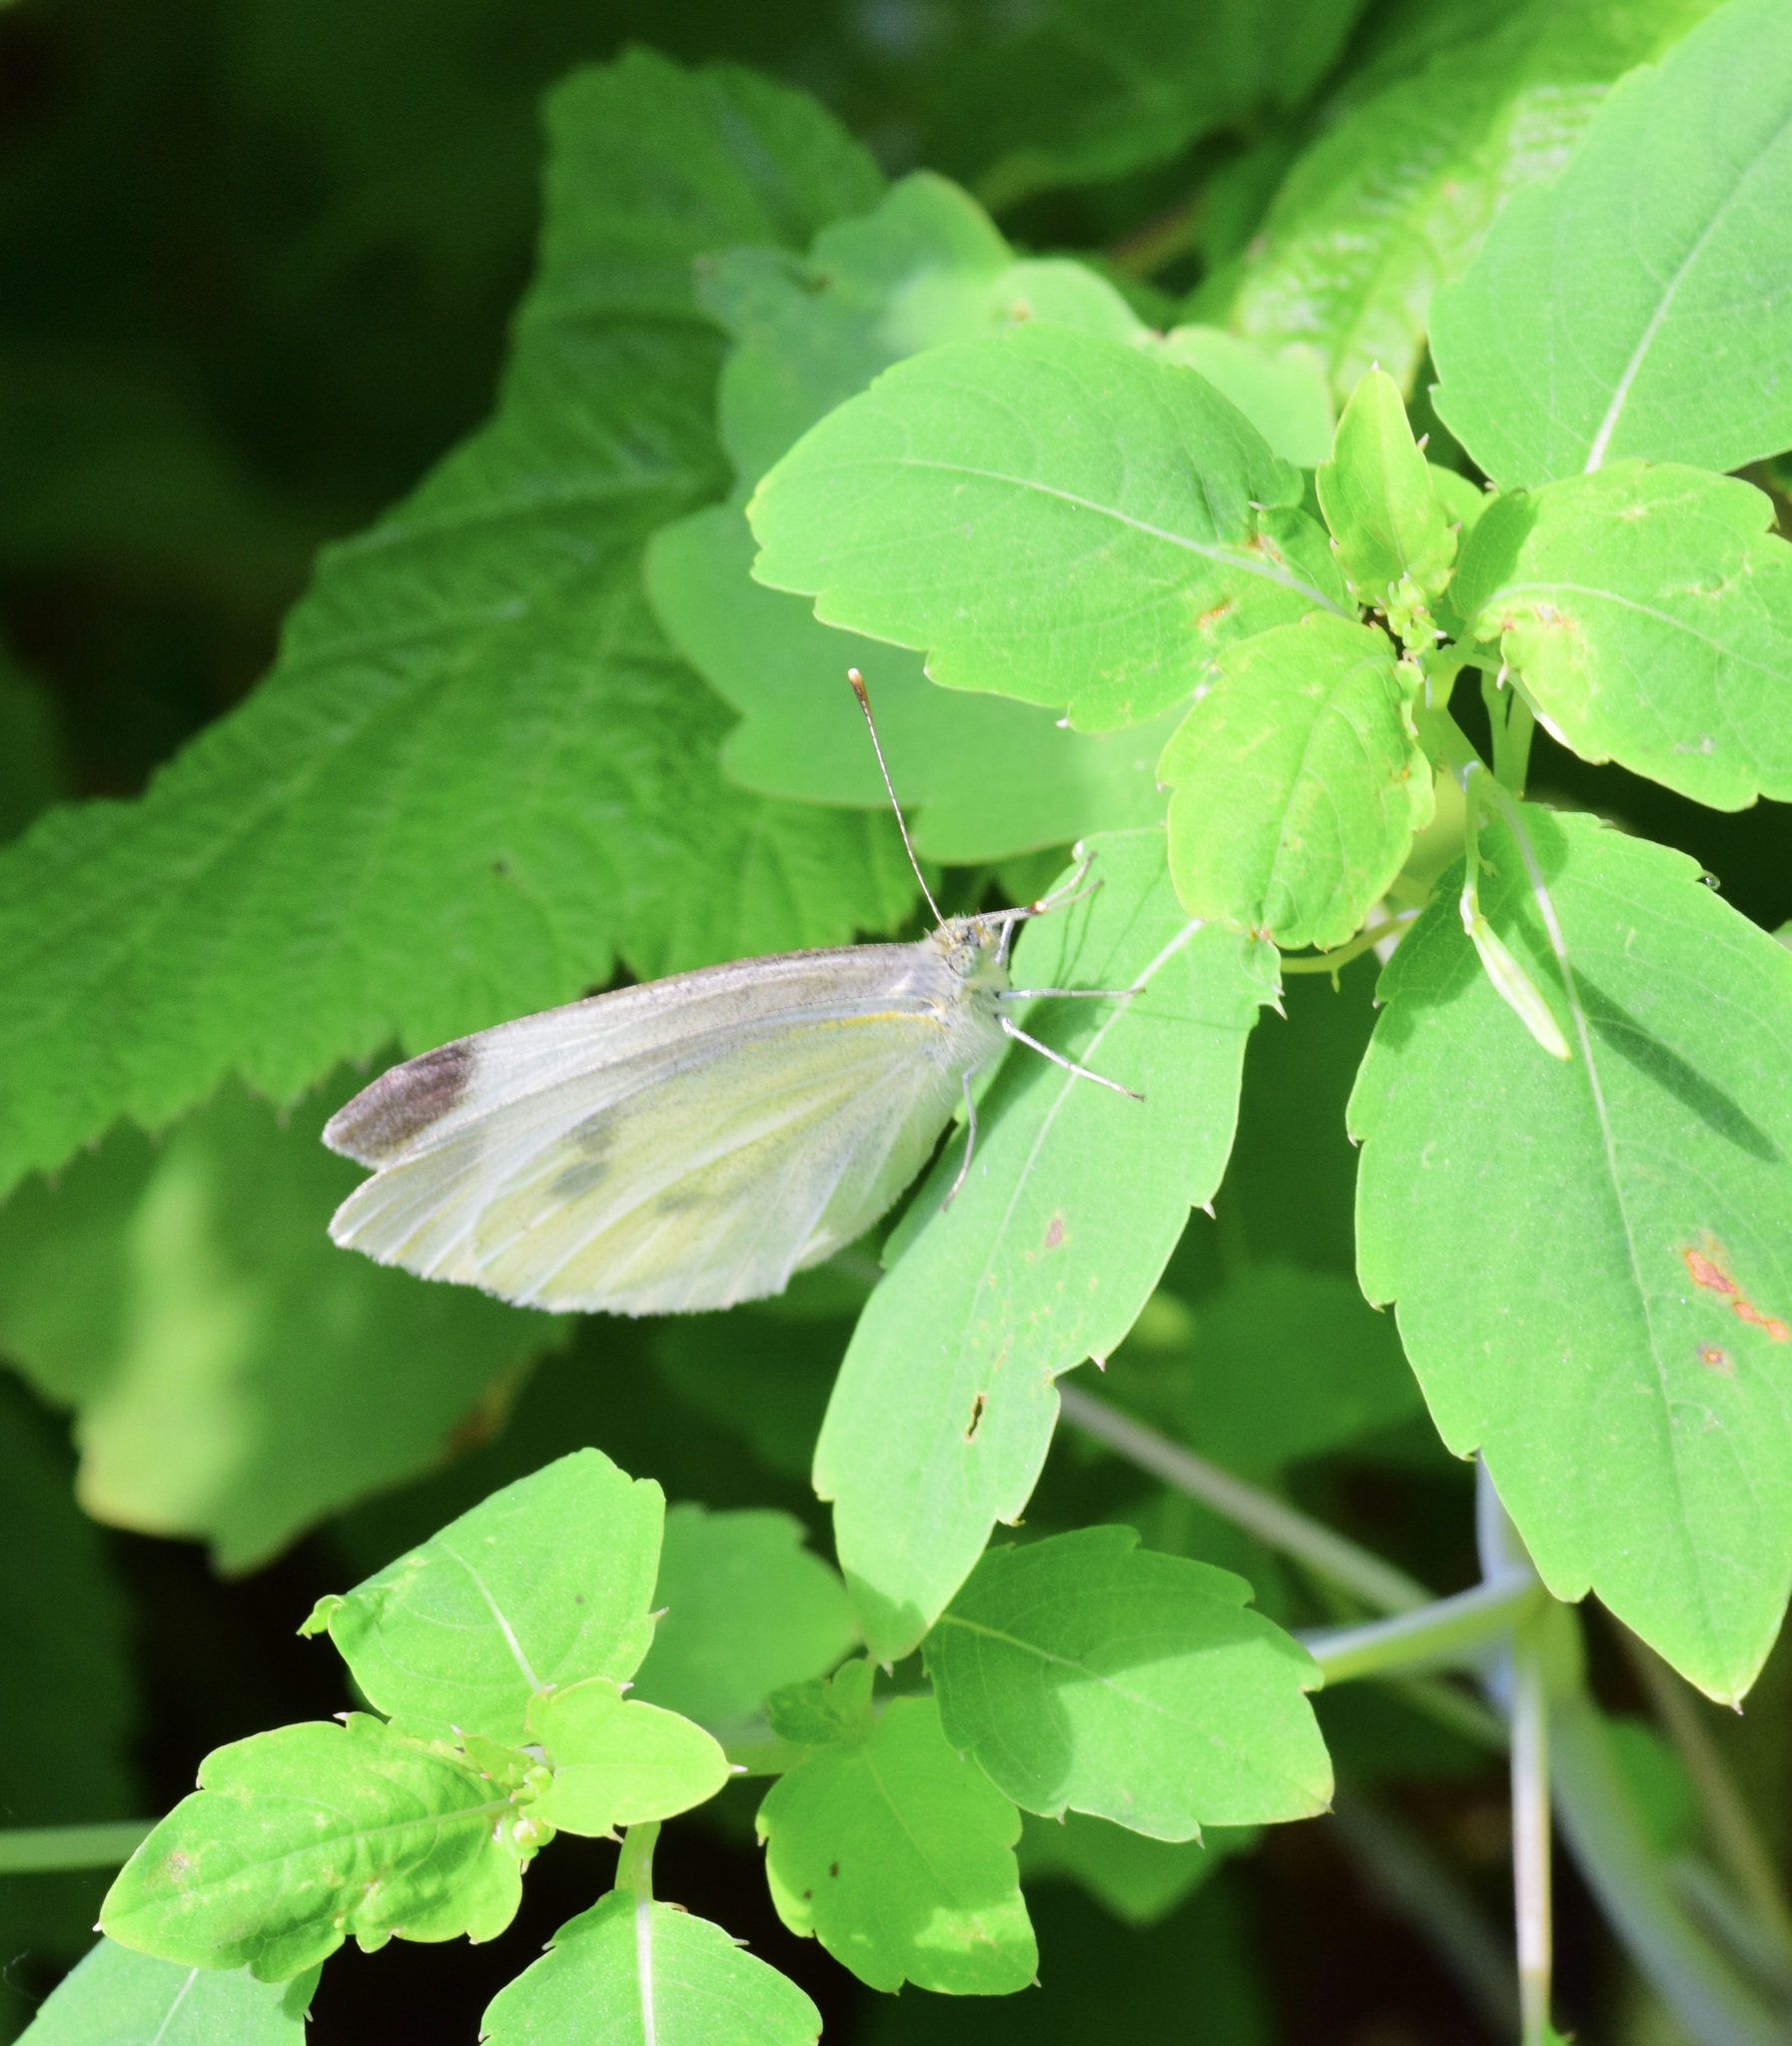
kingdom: Animalia
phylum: Arthropoda
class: Insecta
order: Lepidoptera
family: Pieridae
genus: Pieris
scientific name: Pieris rapae
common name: Small white
